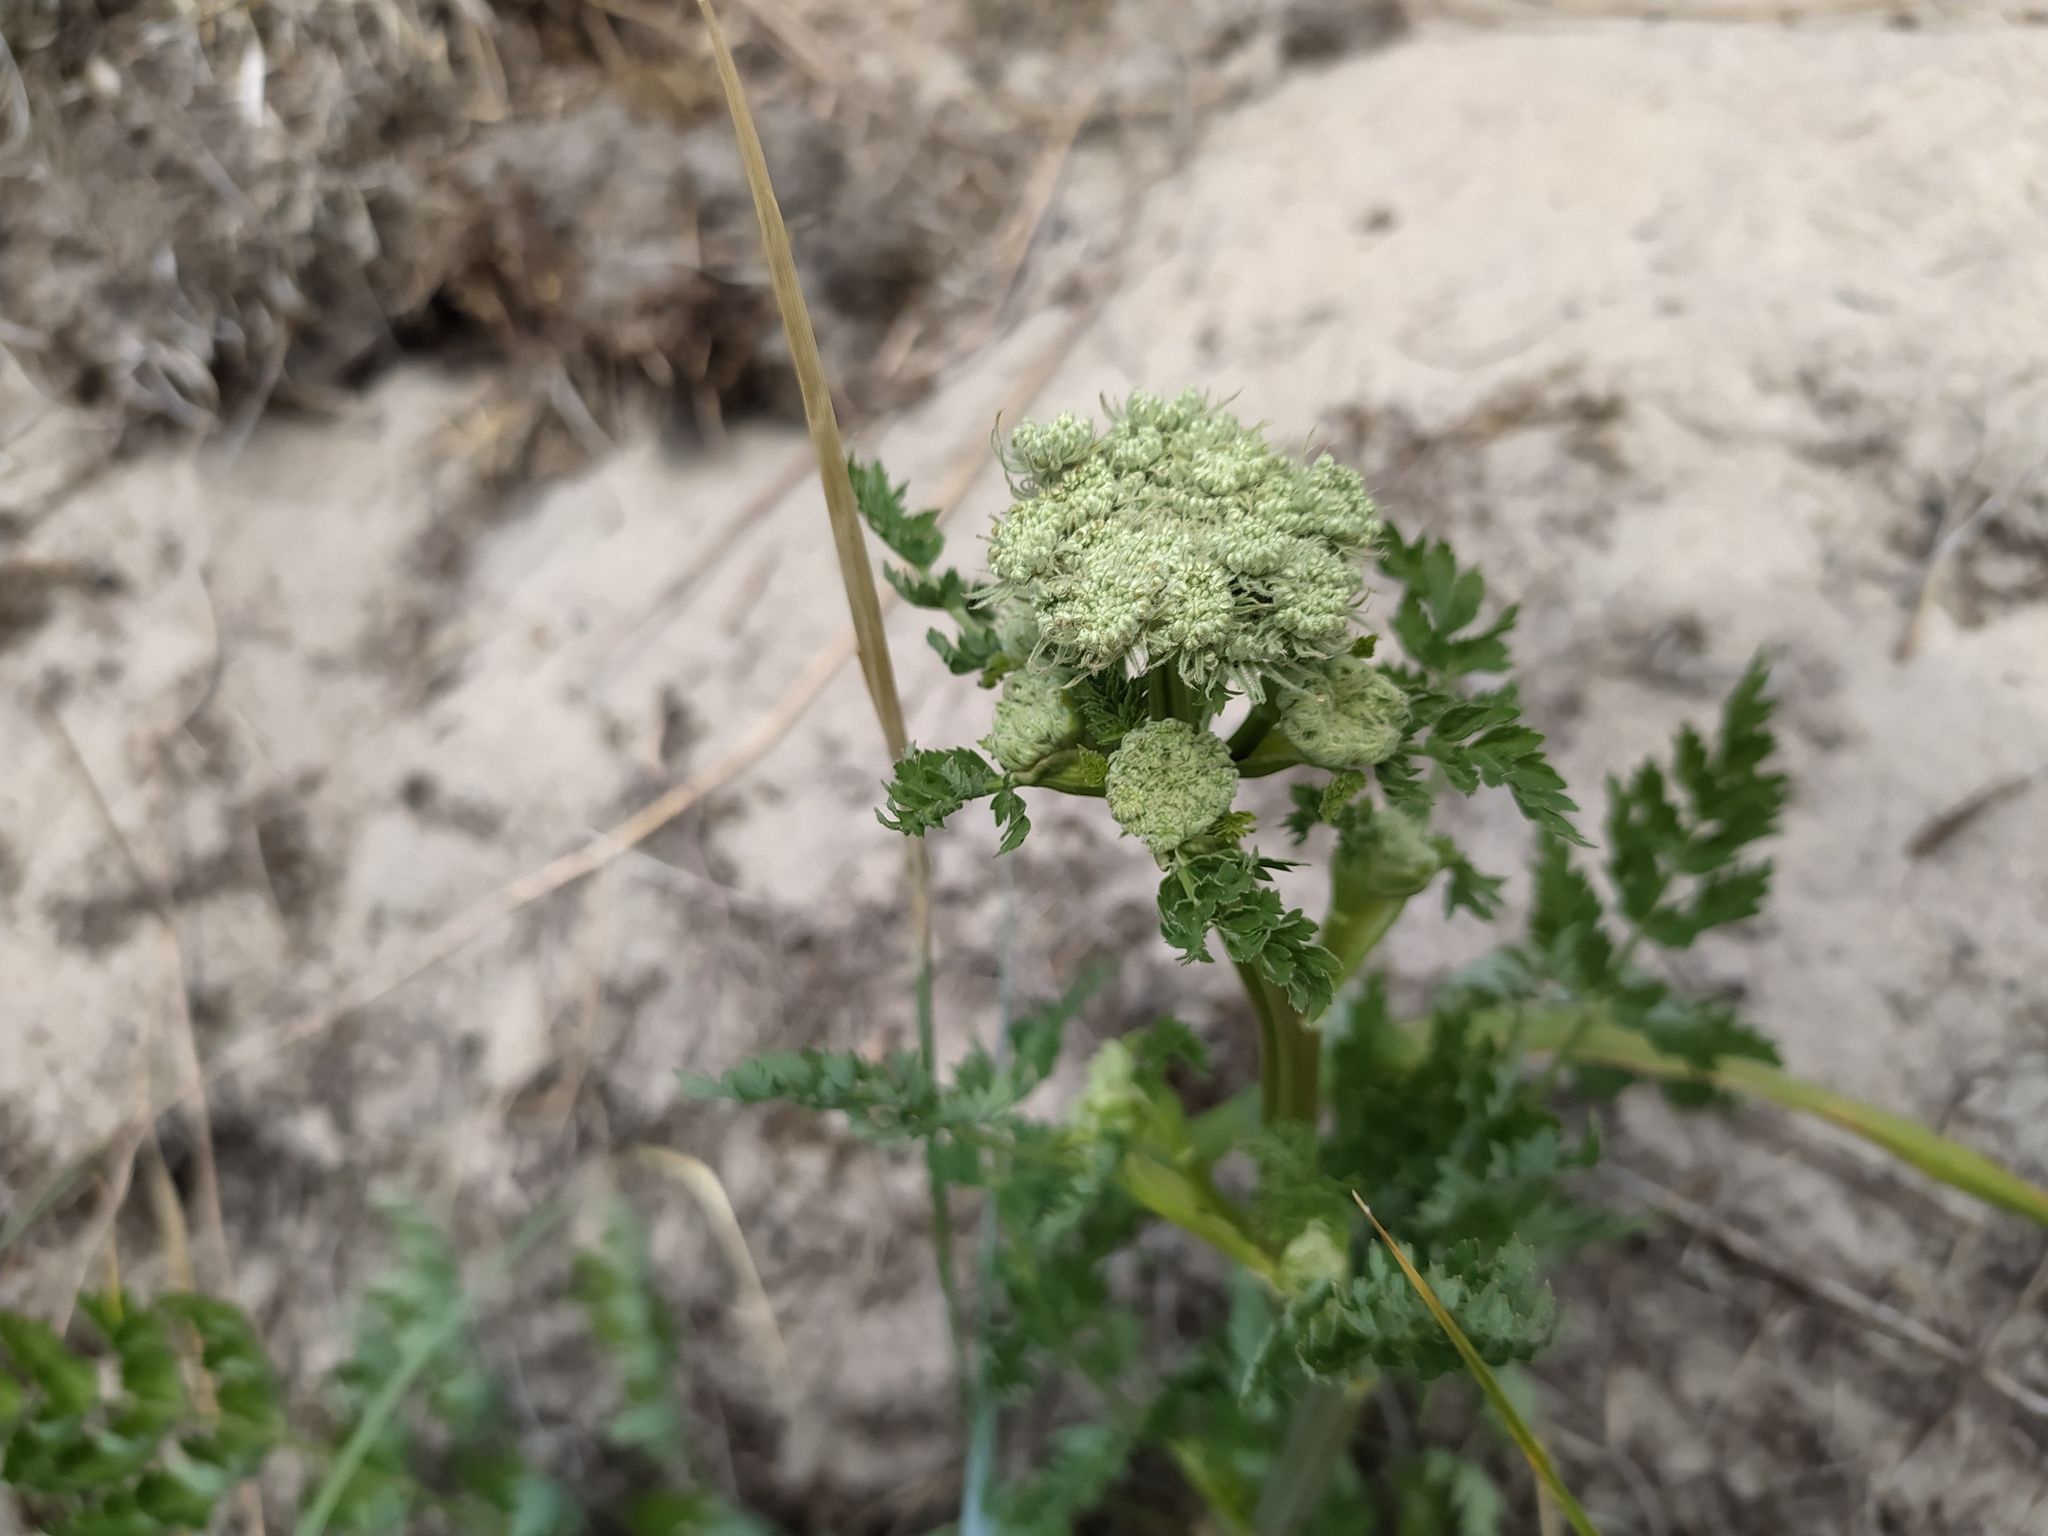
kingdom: Plantae
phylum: Tracheophyta
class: Magnoliopsida
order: Apiales
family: Apiaceae
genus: Seseli
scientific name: Seseli libanotis
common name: Mooncarrot
